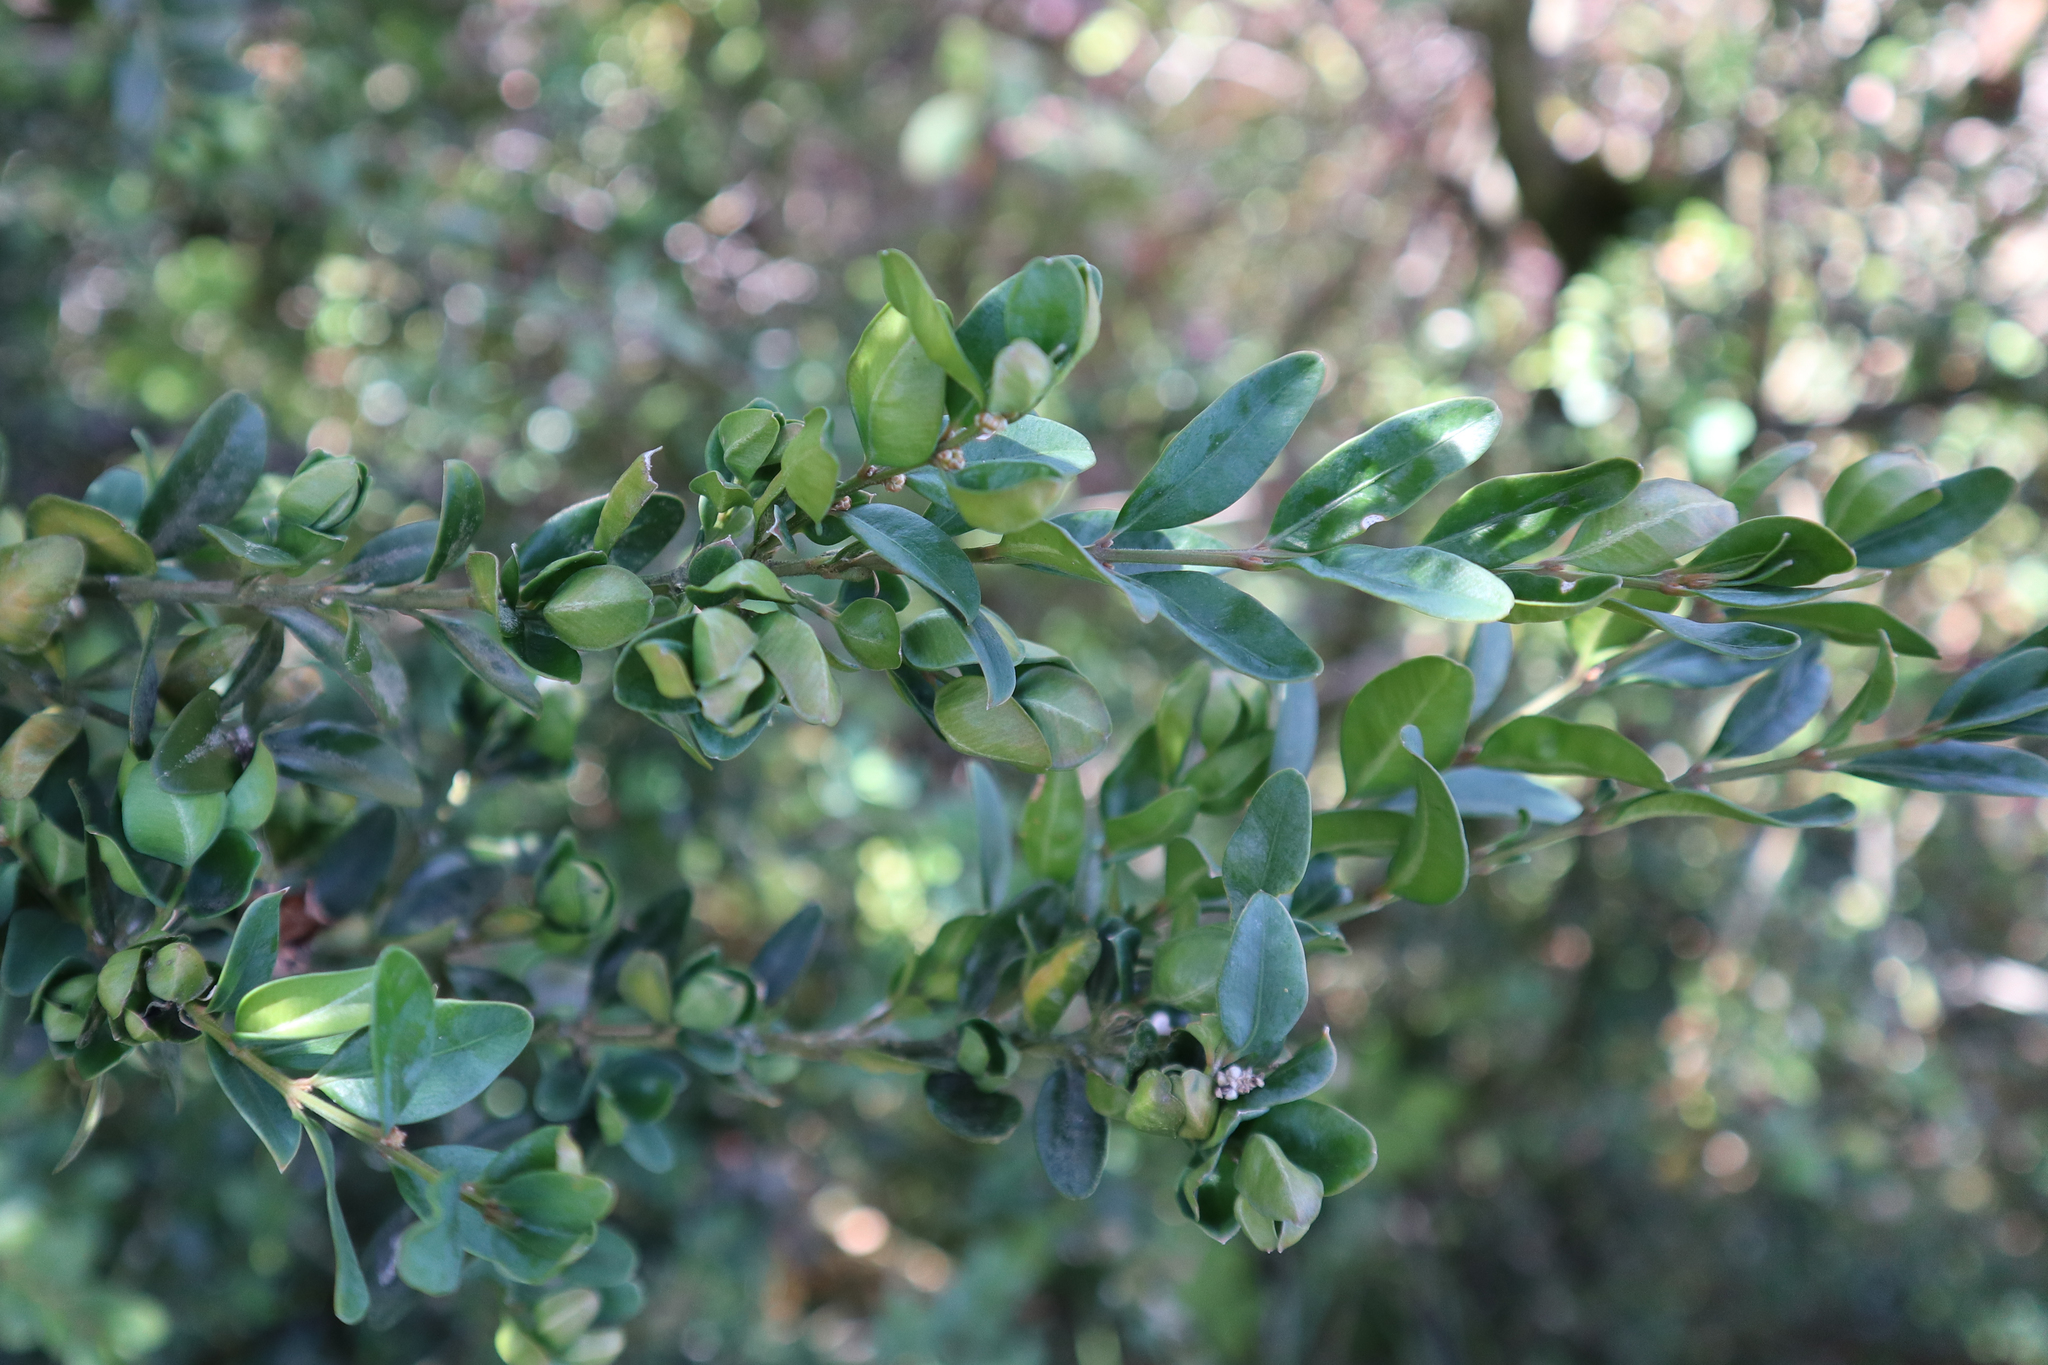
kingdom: Plantae
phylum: Tracheophyta
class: Magnoliopsida
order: Buxales
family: Buxaceae
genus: Buxus
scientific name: Buxus sempervirens
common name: Box
